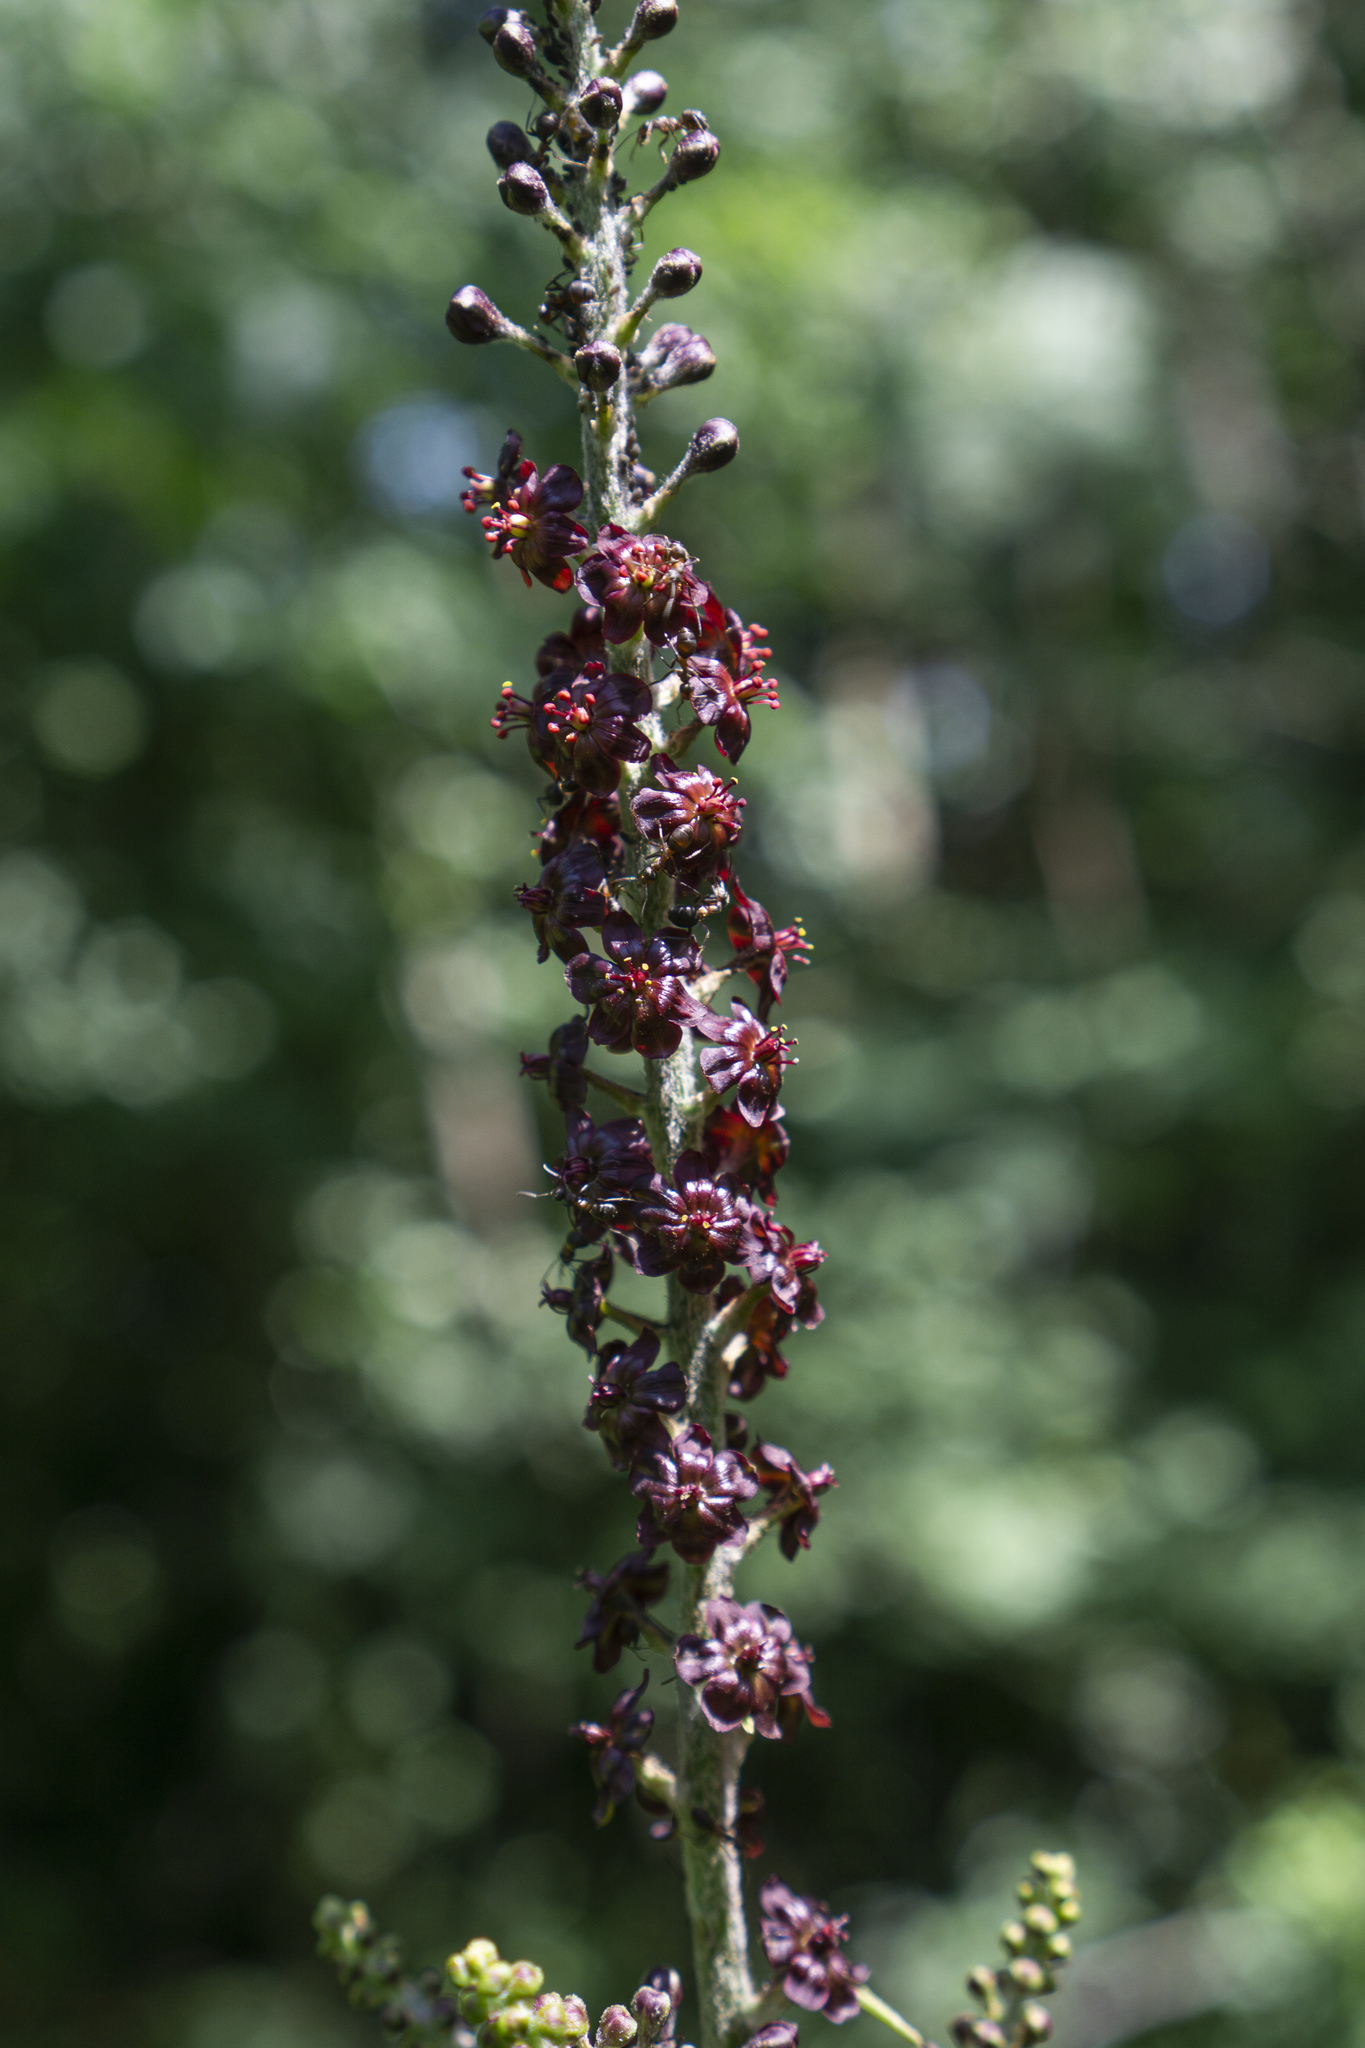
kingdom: Plantae
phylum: Tracheophyta
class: Liliopsida
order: Liliales
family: Melanthiaceae
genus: Veratrum
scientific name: Veratrum nigrum
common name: Black veratrum
